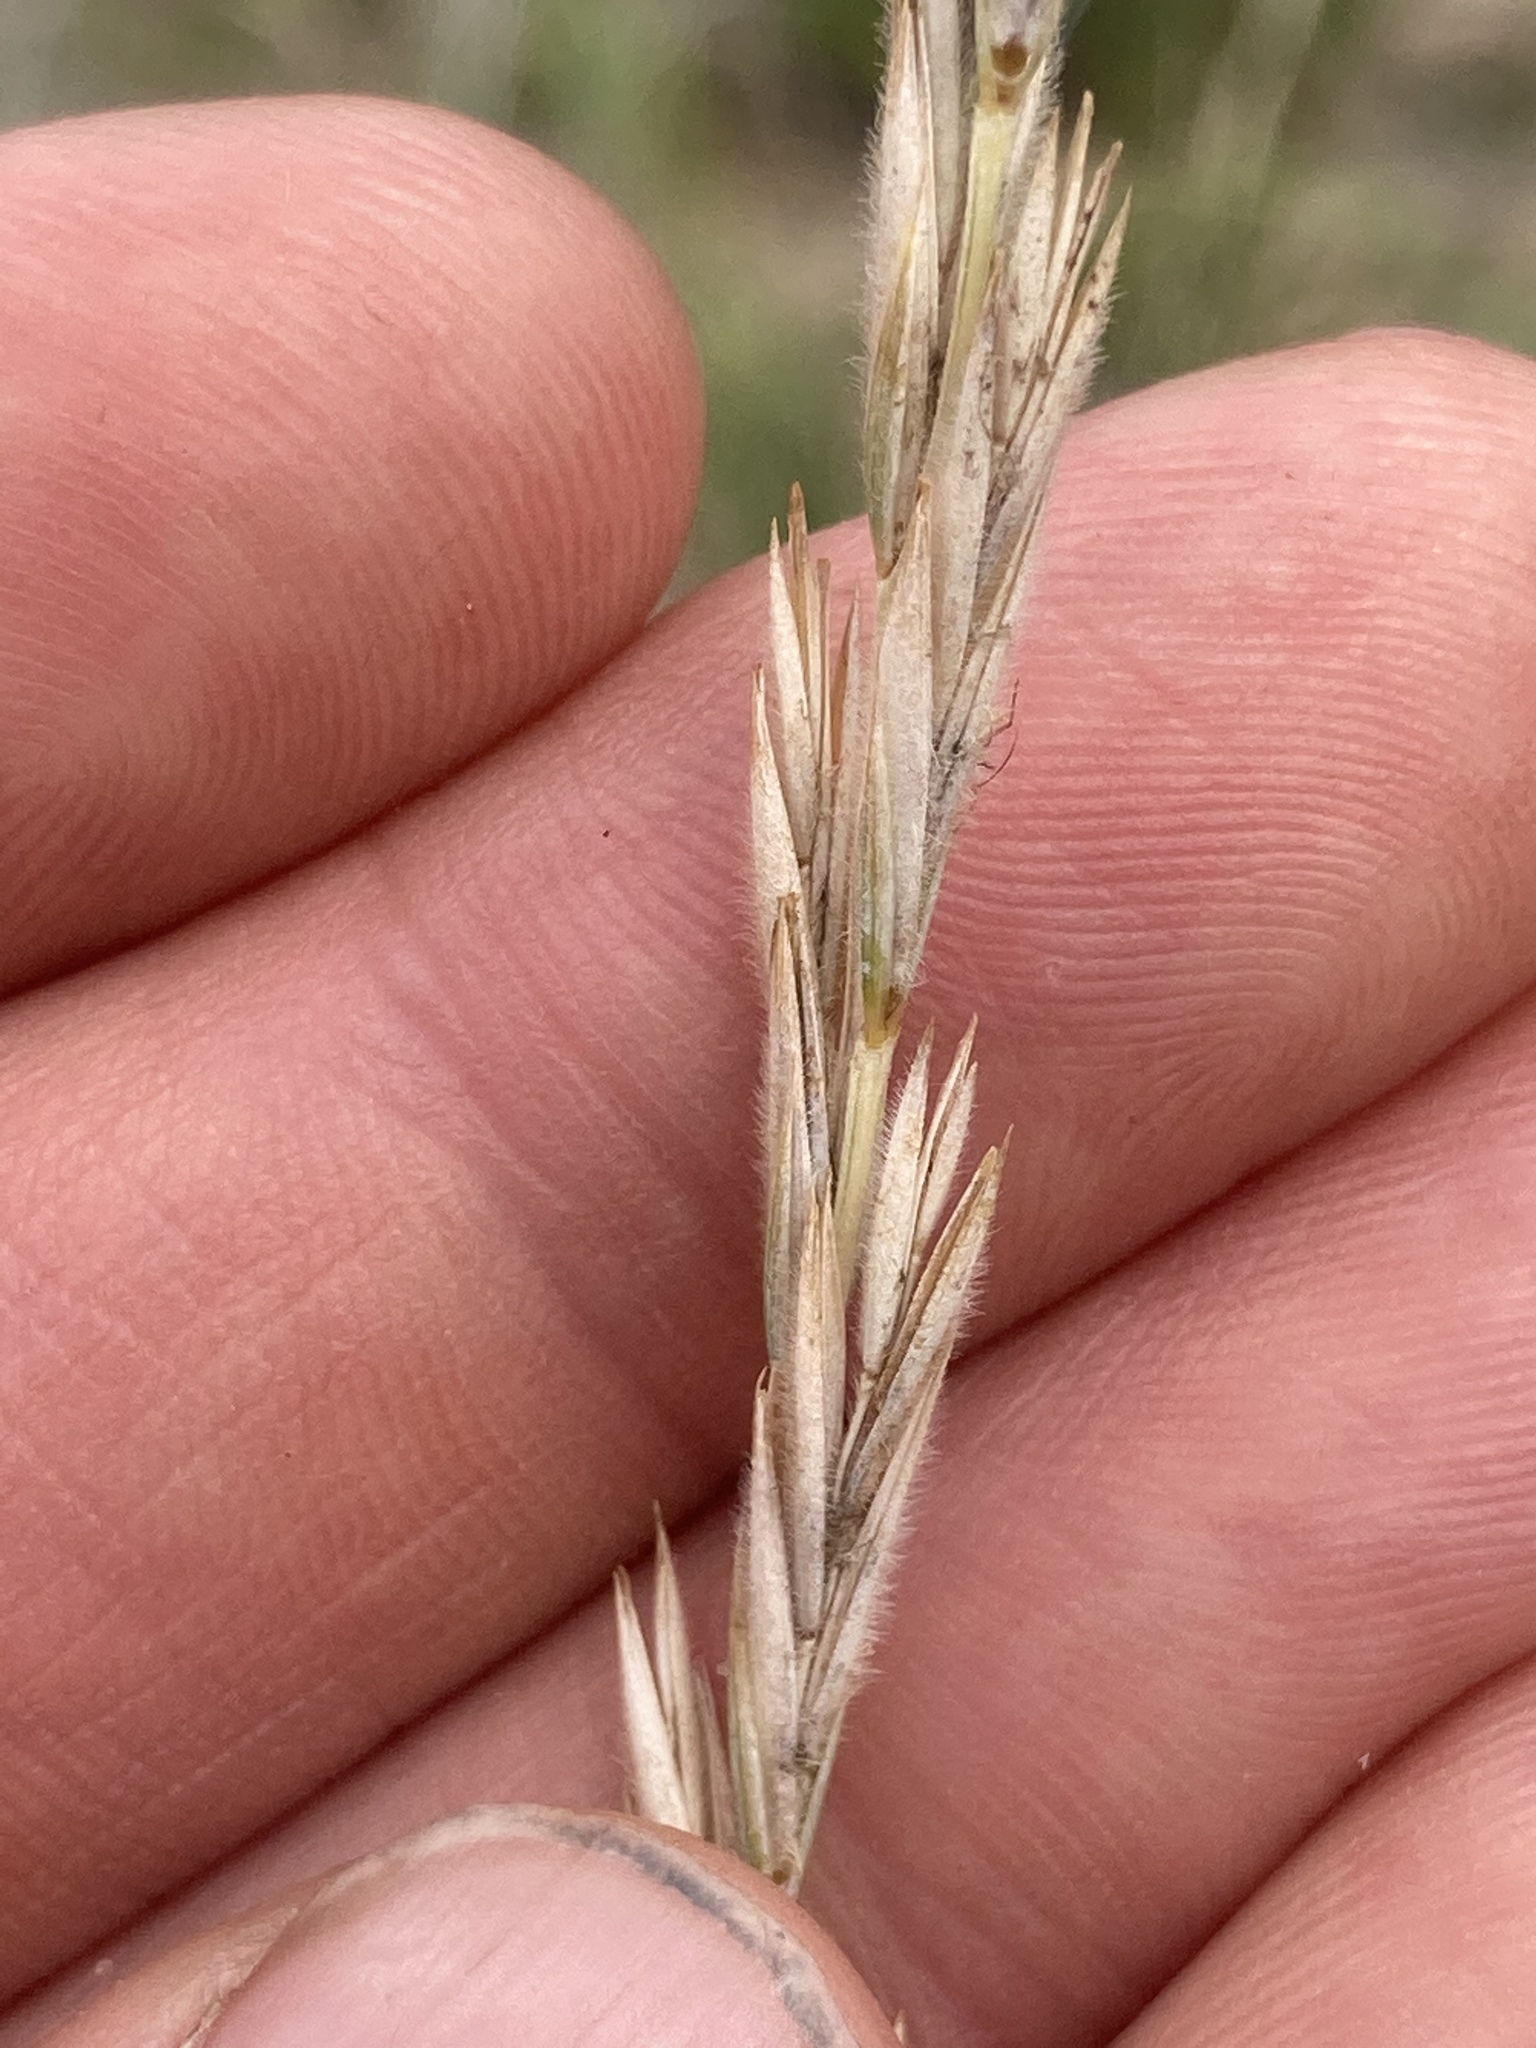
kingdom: Plantae
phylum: Tracheophyta
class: Liliopsida
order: Poales
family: Poaceae
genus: Elymus
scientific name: Elymus lanceolatus
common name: Thick-spike wheatgrass
